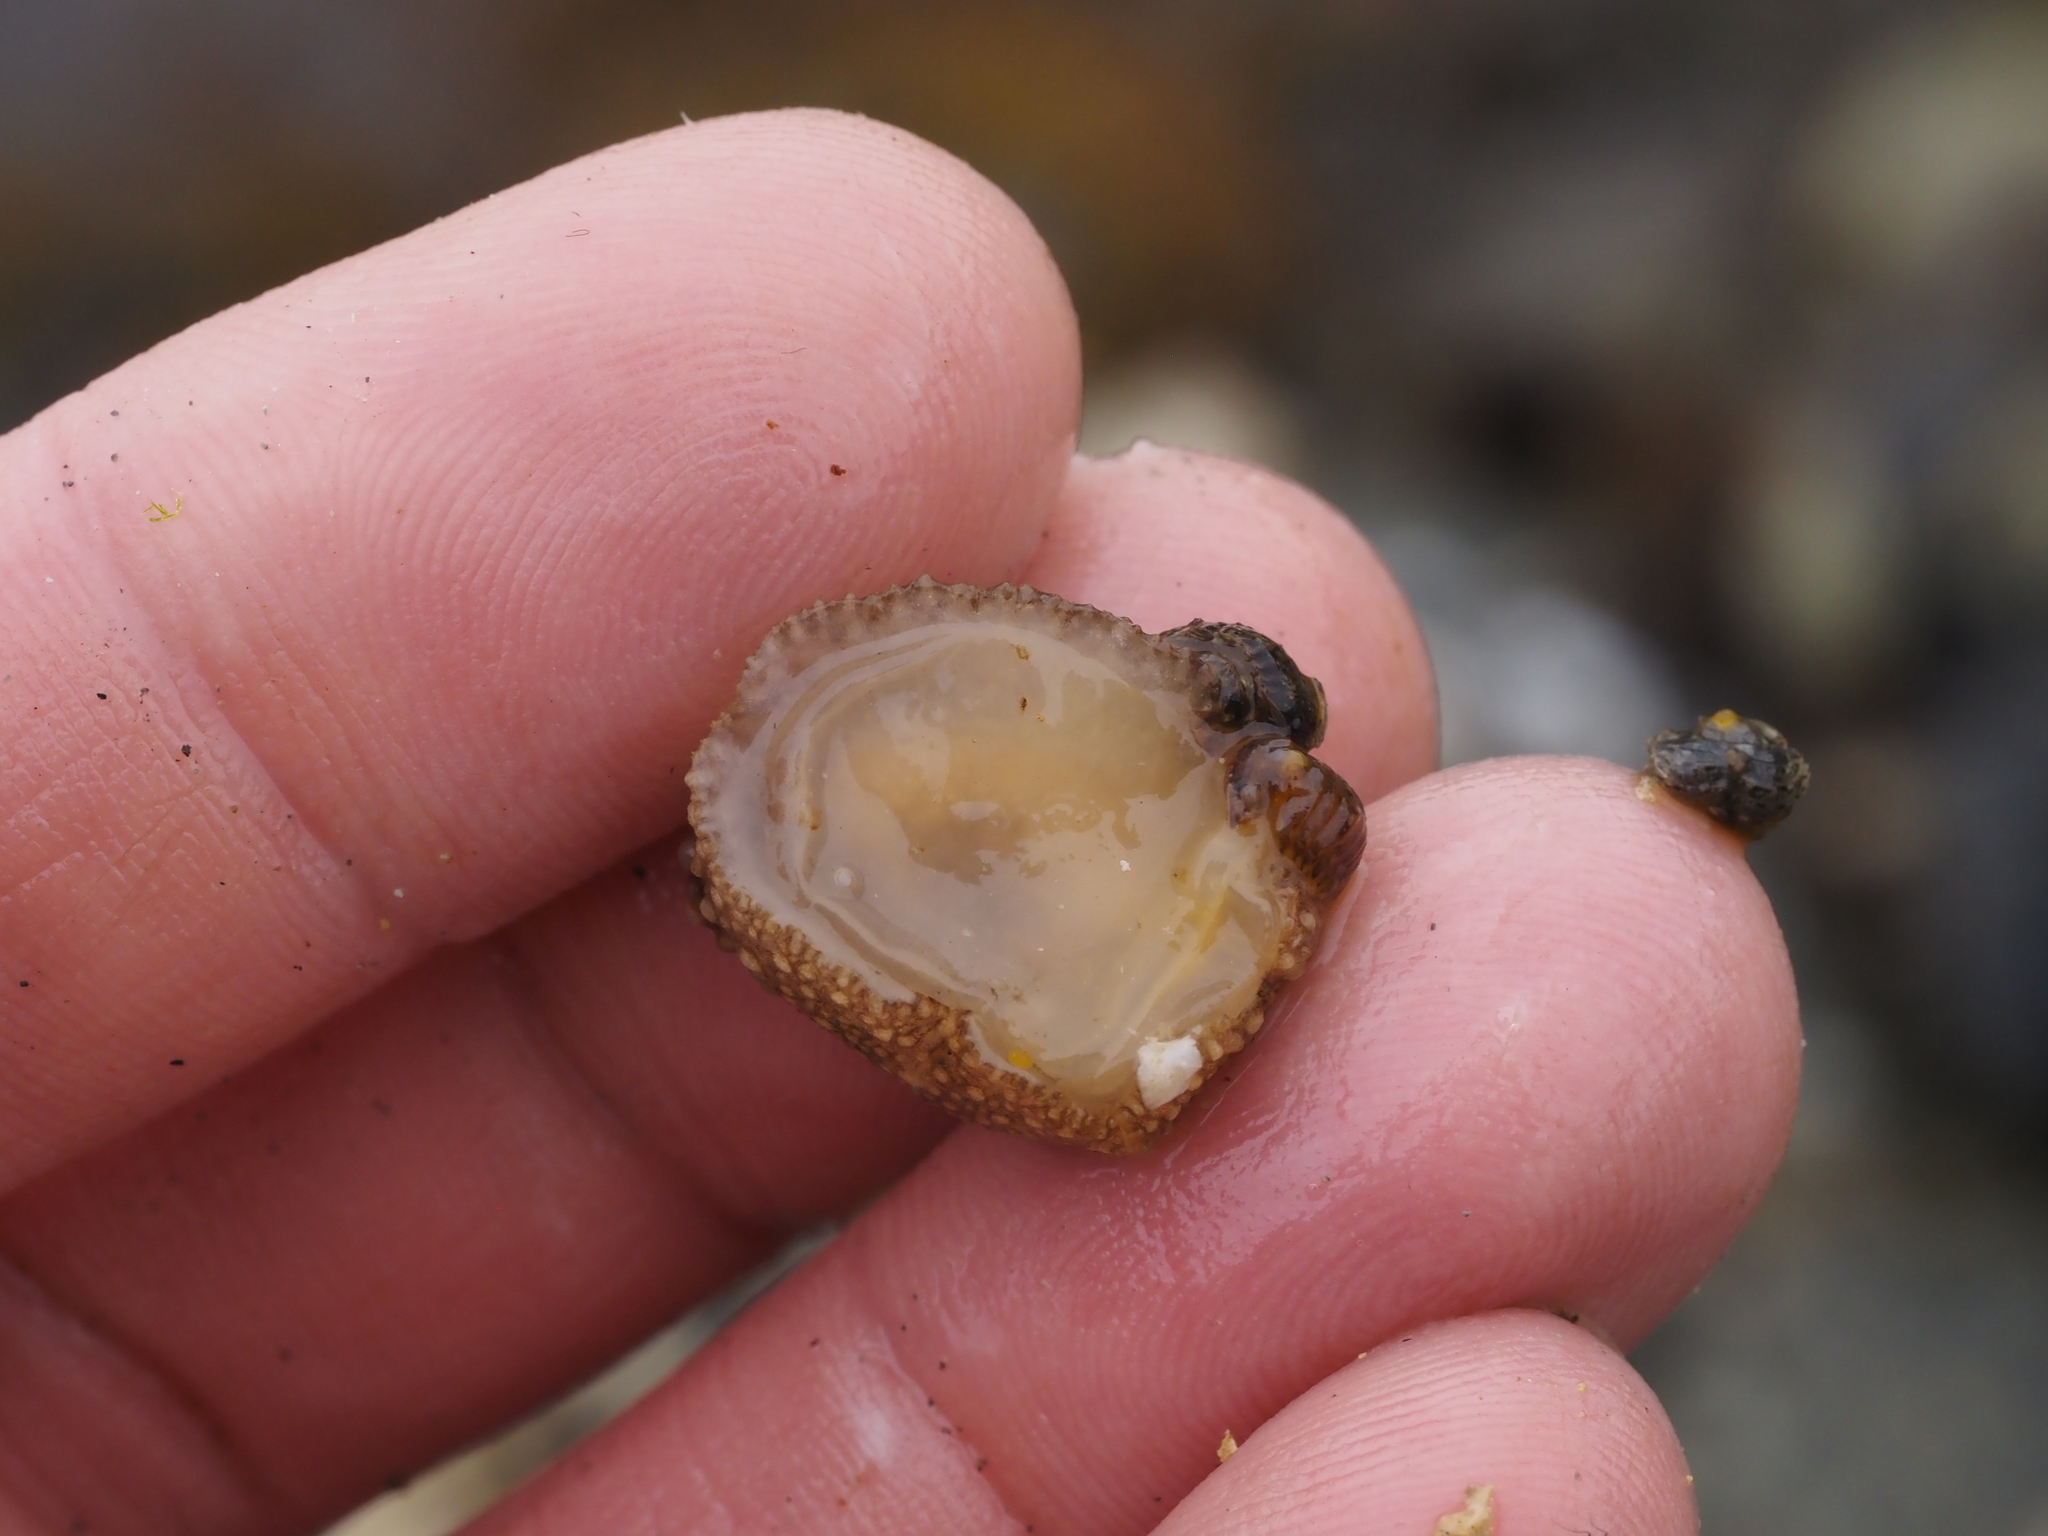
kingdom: Animalia
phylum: Mollusca
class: Gastropoda
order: Nudibranchia
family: Onchidorididae
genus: Onchidoris
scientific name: Onchidoris bilamellata
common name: Barnacle-eating onchidoris
